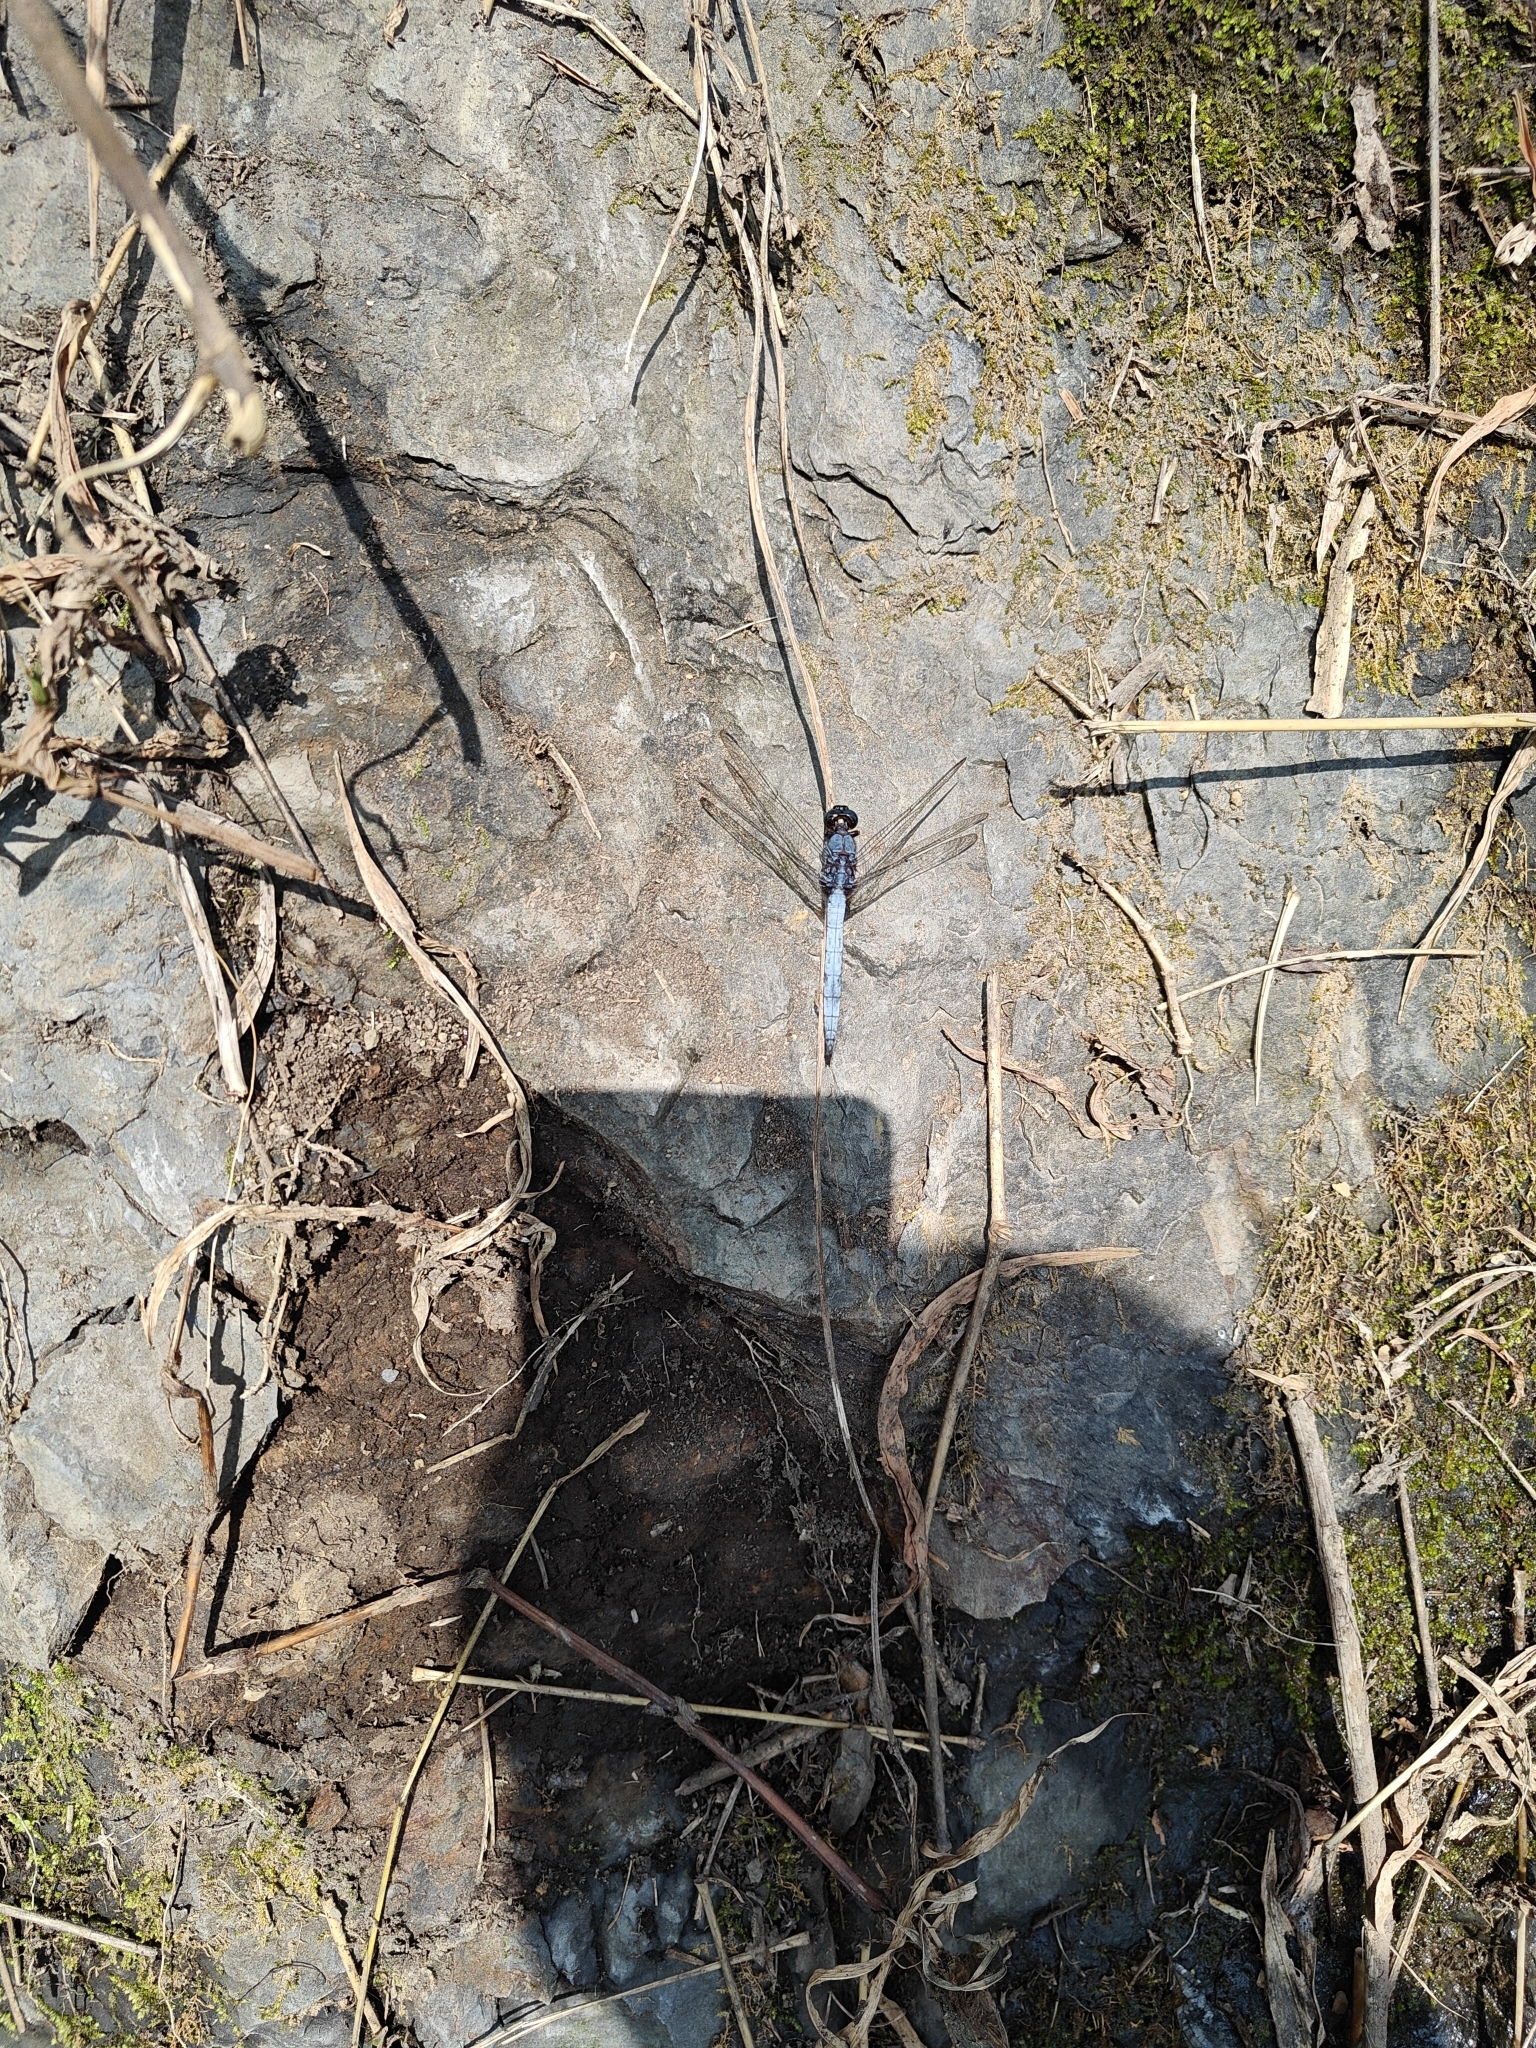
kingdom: Animalia
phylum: Arthropoda
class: Insecta
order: Odonata
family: Libellulidae
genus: Orthetrum
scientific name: Orthetrum glaucum
